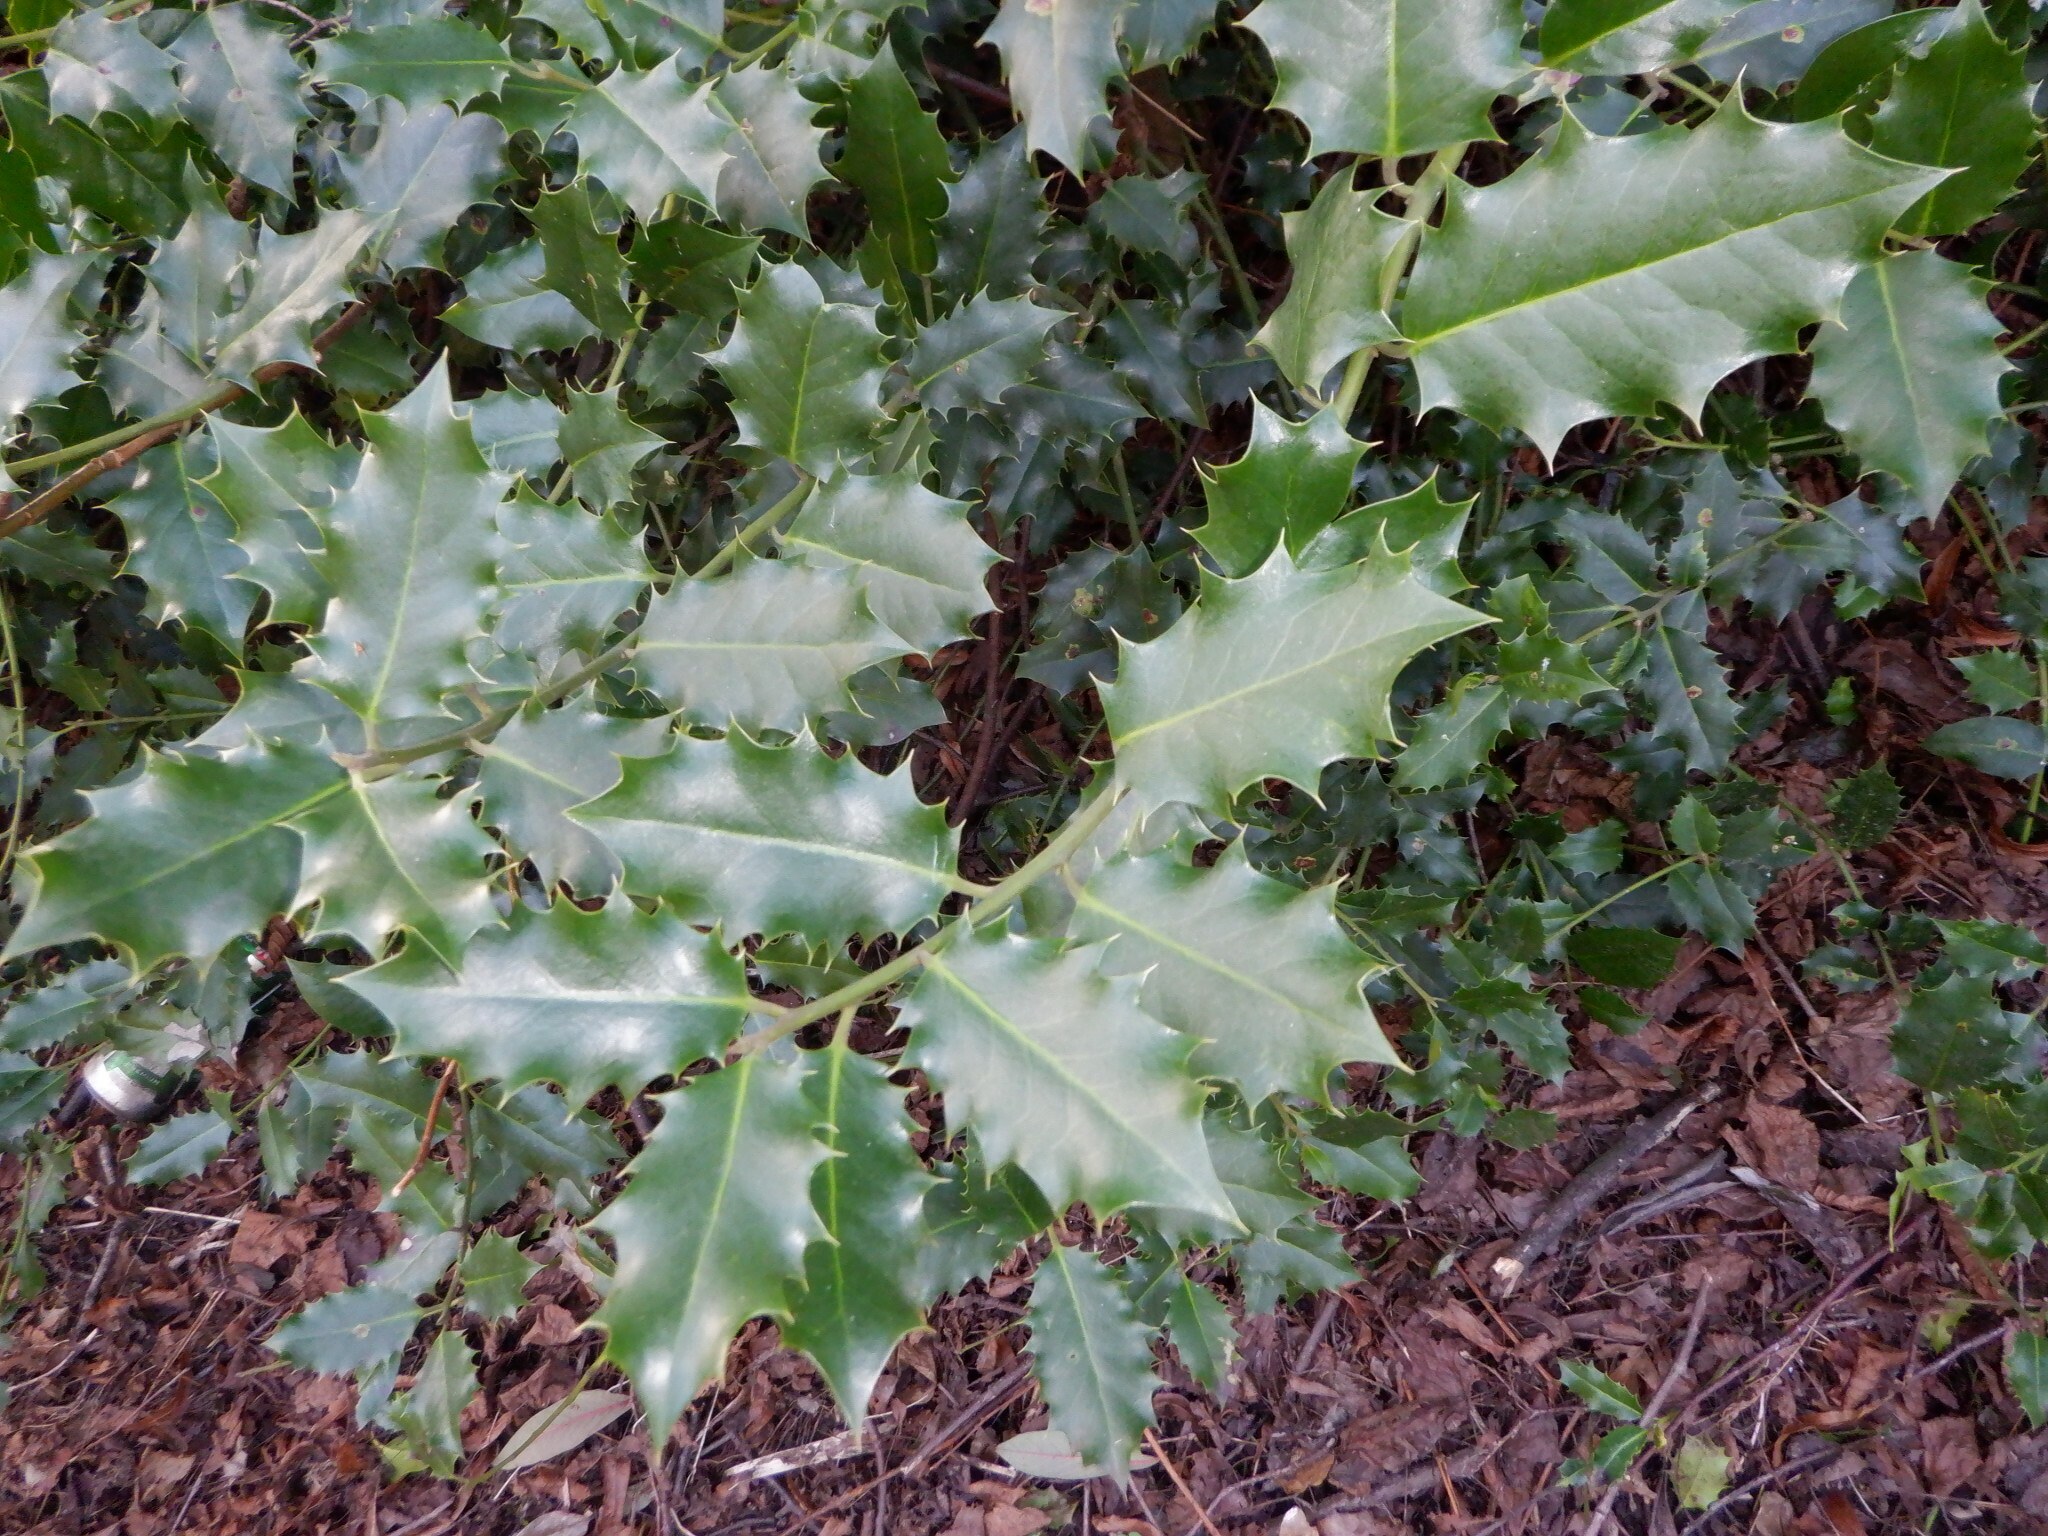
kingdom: Plantae
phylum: Tracheophyta
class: Magnoliopsida
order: Aquifoliales
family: Aquifoliaceae
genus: Ilex
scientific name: Ilex aquifolium
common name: English holly
